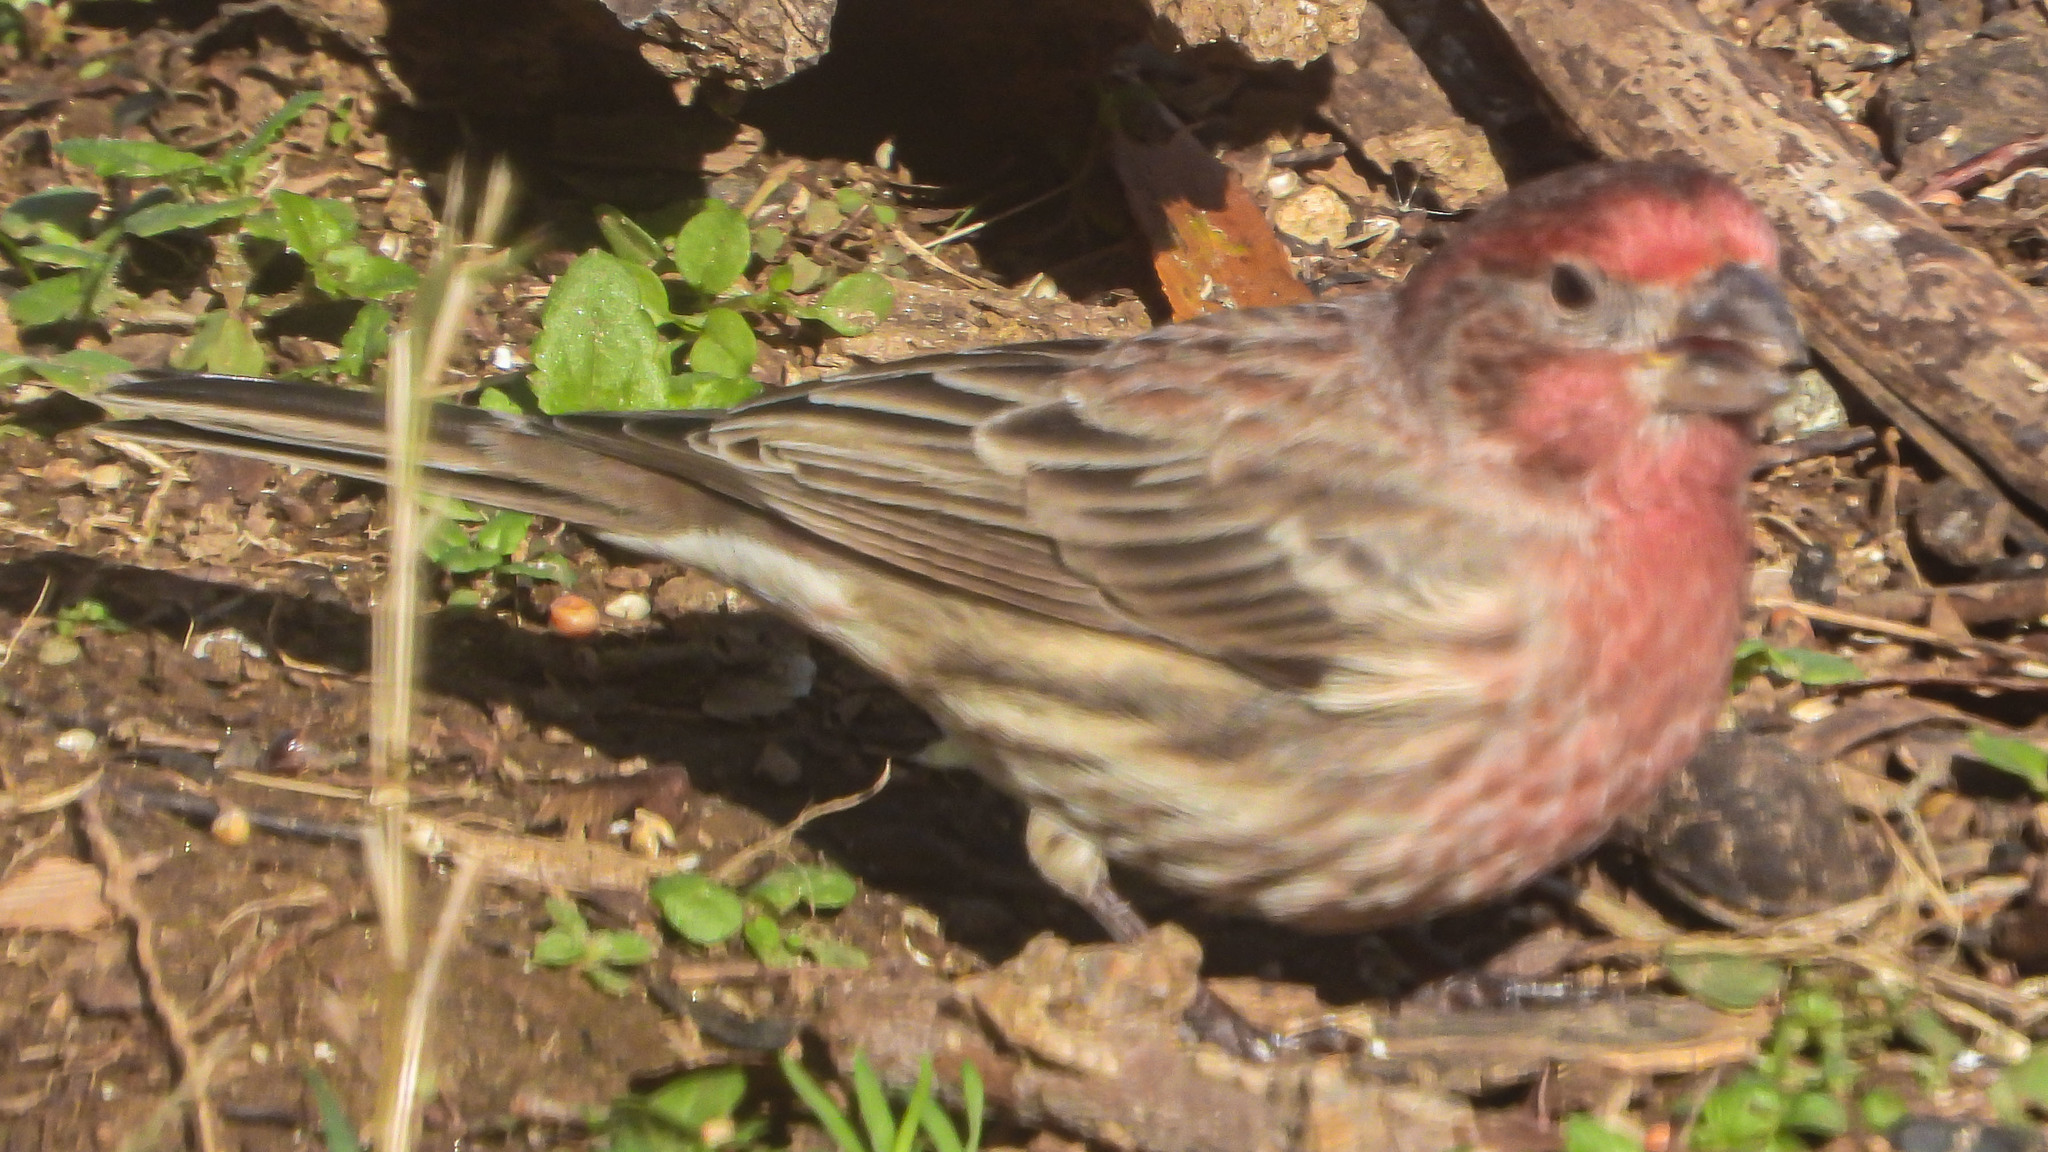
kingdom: Animalia
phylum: Chordata
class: Aves
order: Passeriformes
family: Fringillidae
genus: Haemorhous
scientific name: Haemorhous mexicanus
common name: House finch
